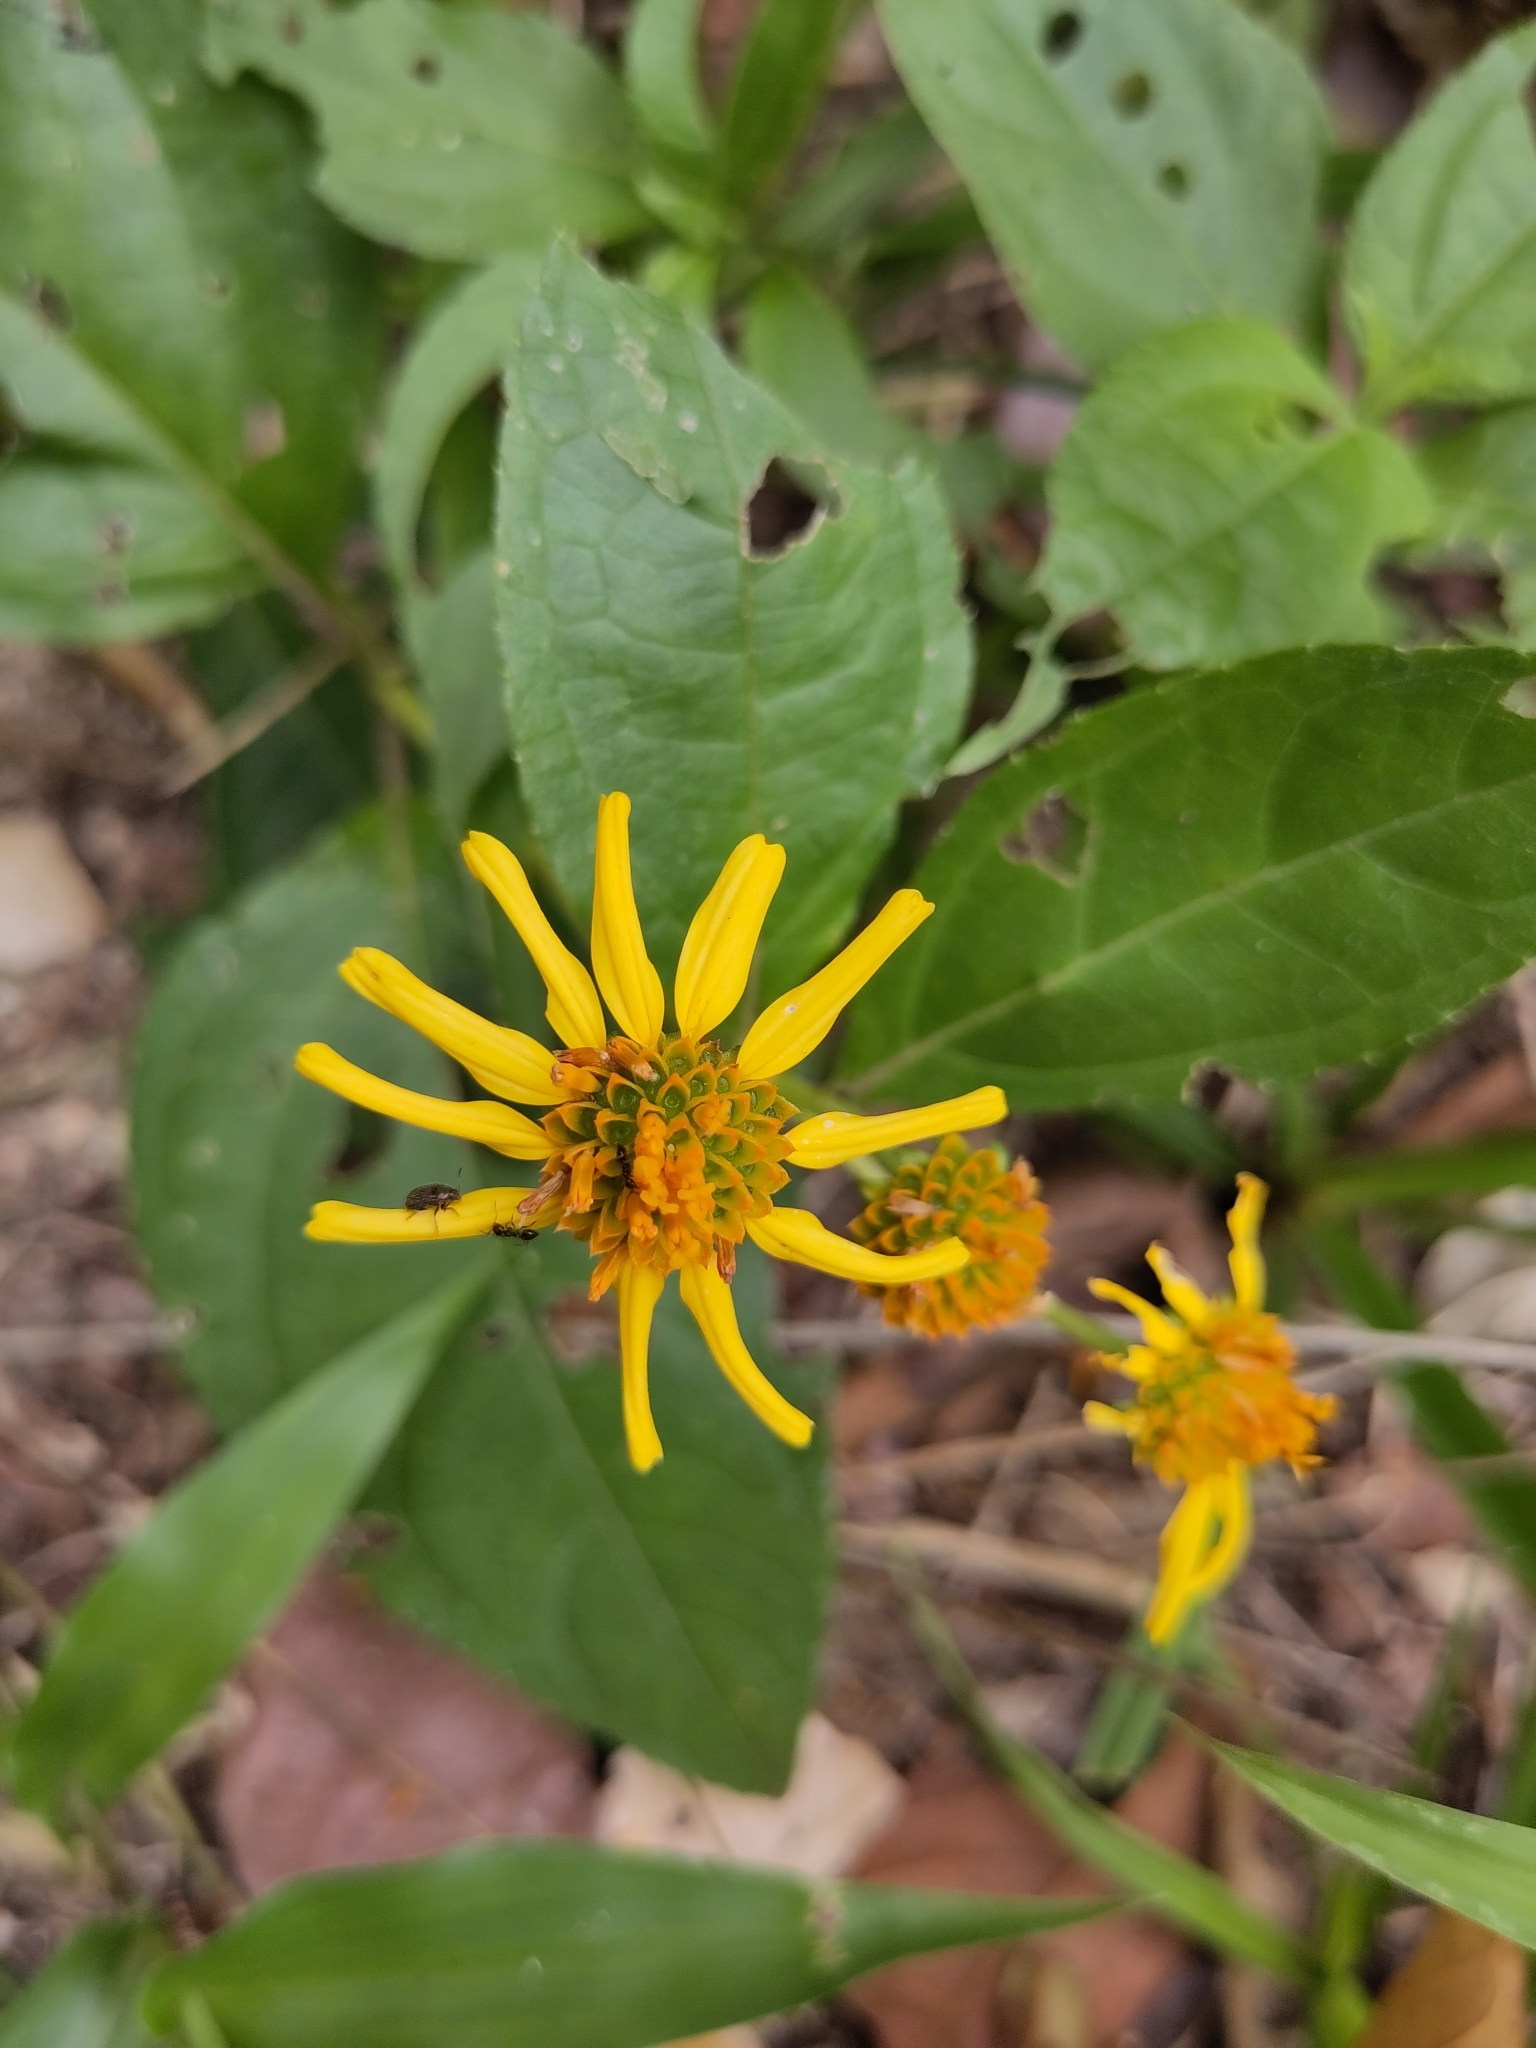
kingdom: Plantae
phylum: Tracheophyta
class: Magnoliopsida
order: Asterales
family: Asteraceae
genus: Tilesia
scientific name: Tilesia baccata
